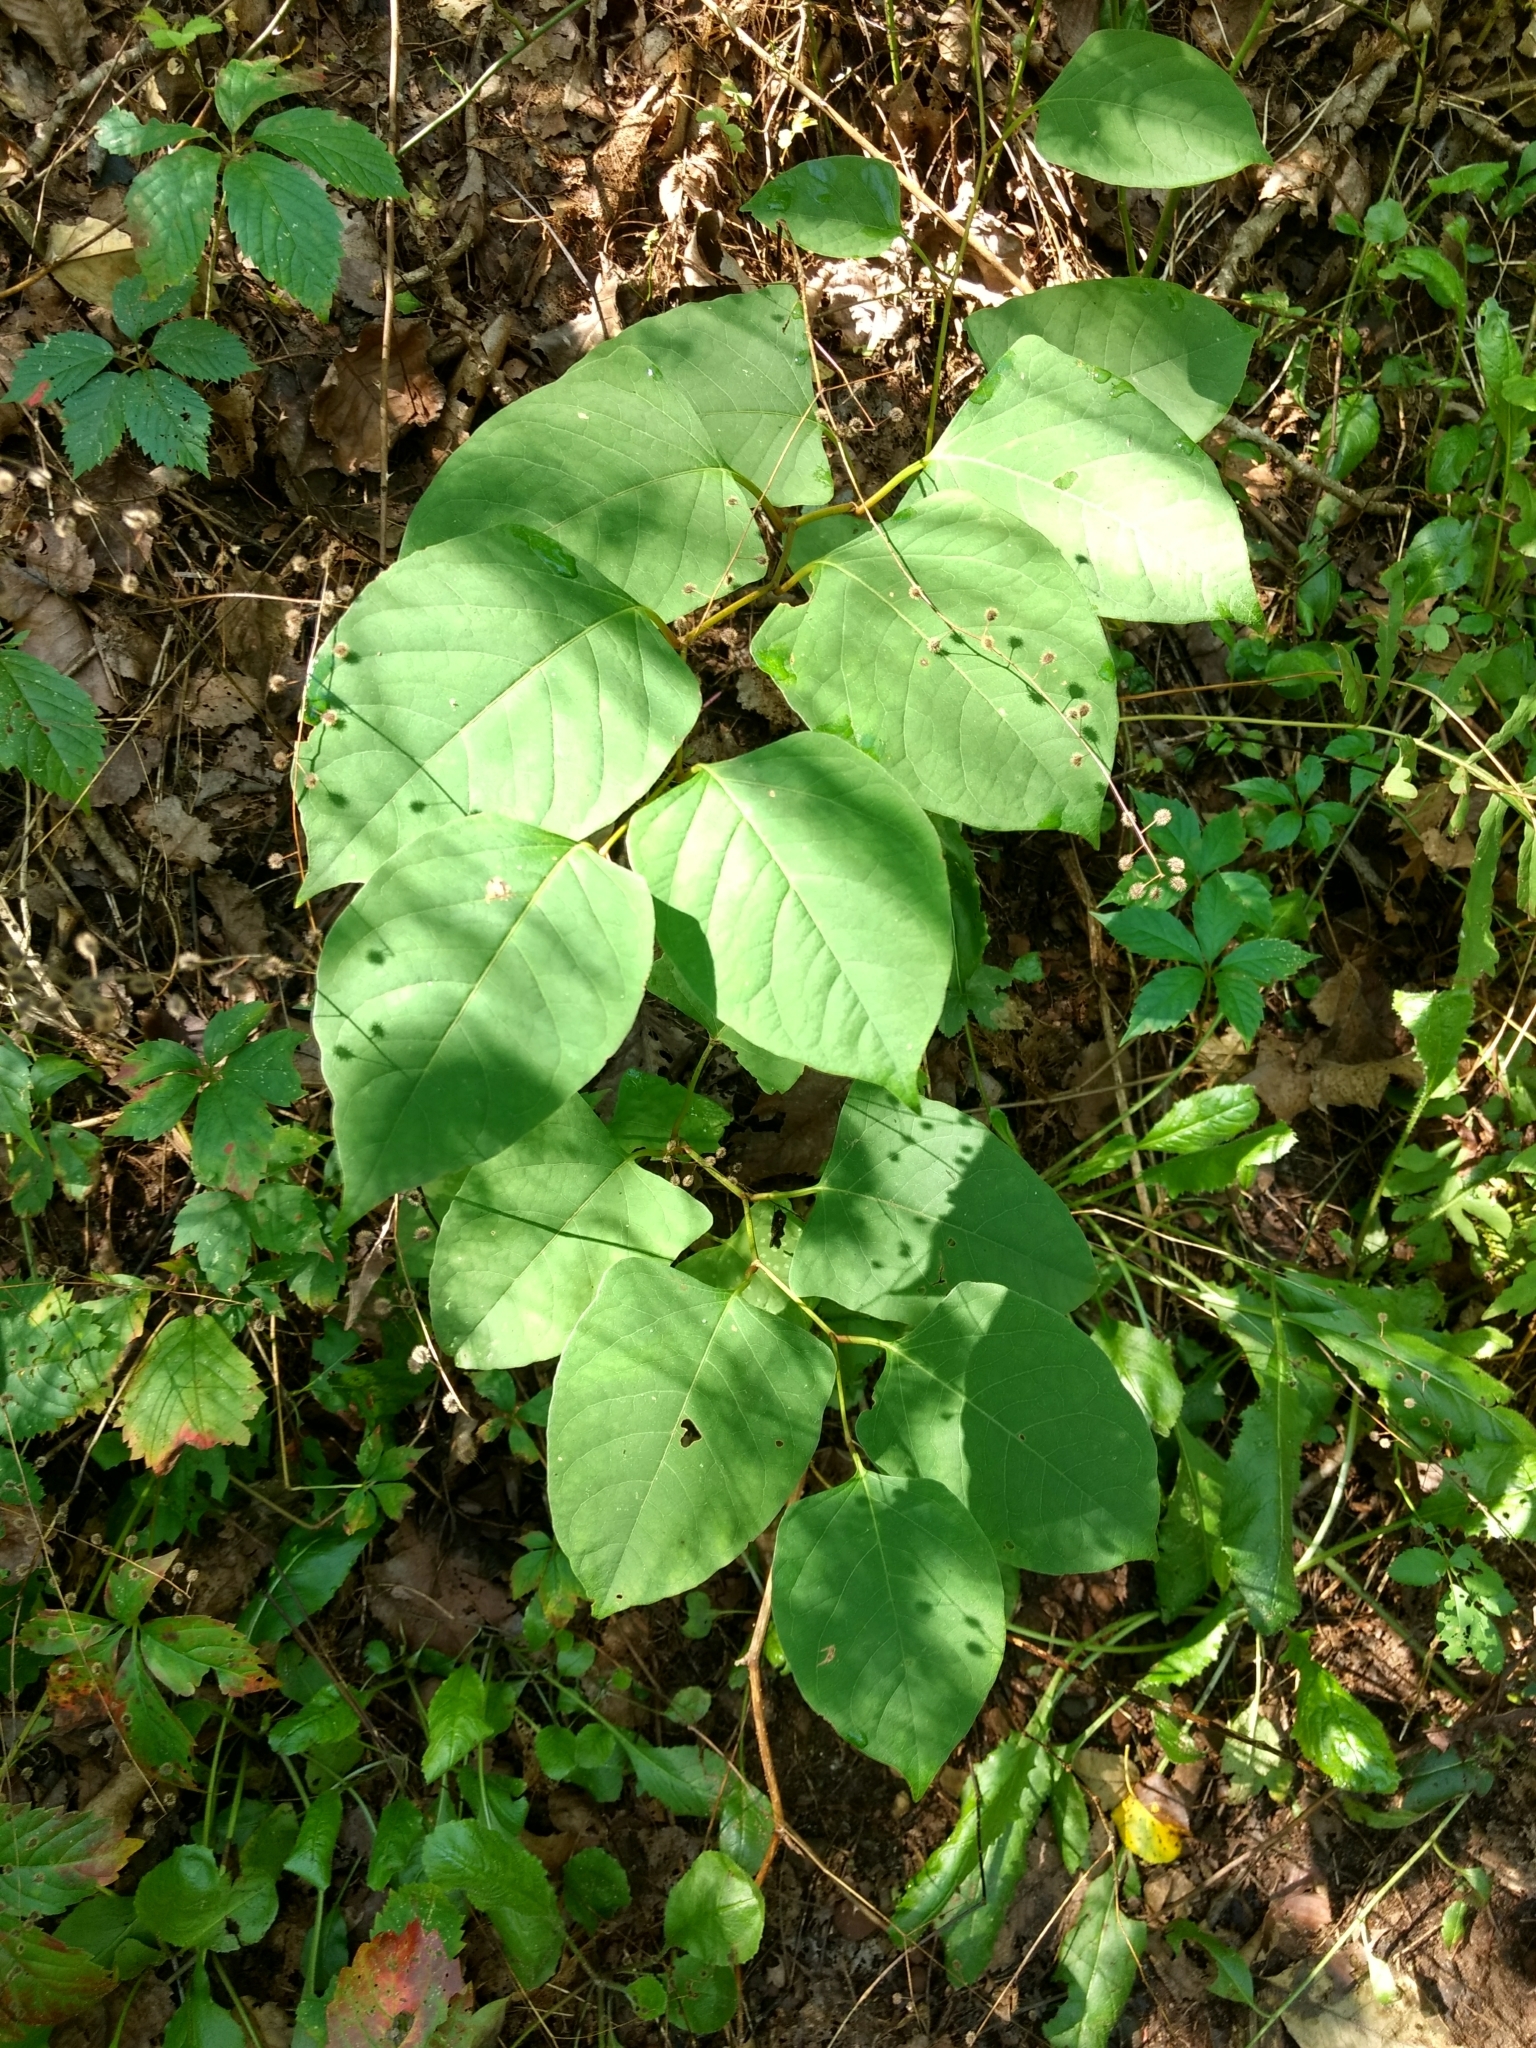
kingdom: Plantae
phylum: Tracheophyta
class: Magnoliopsida
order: Caryophyllales
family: Polygonaceae
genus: Reynoutria
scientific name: Reynoutria japonica
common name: Japanese knotweed
